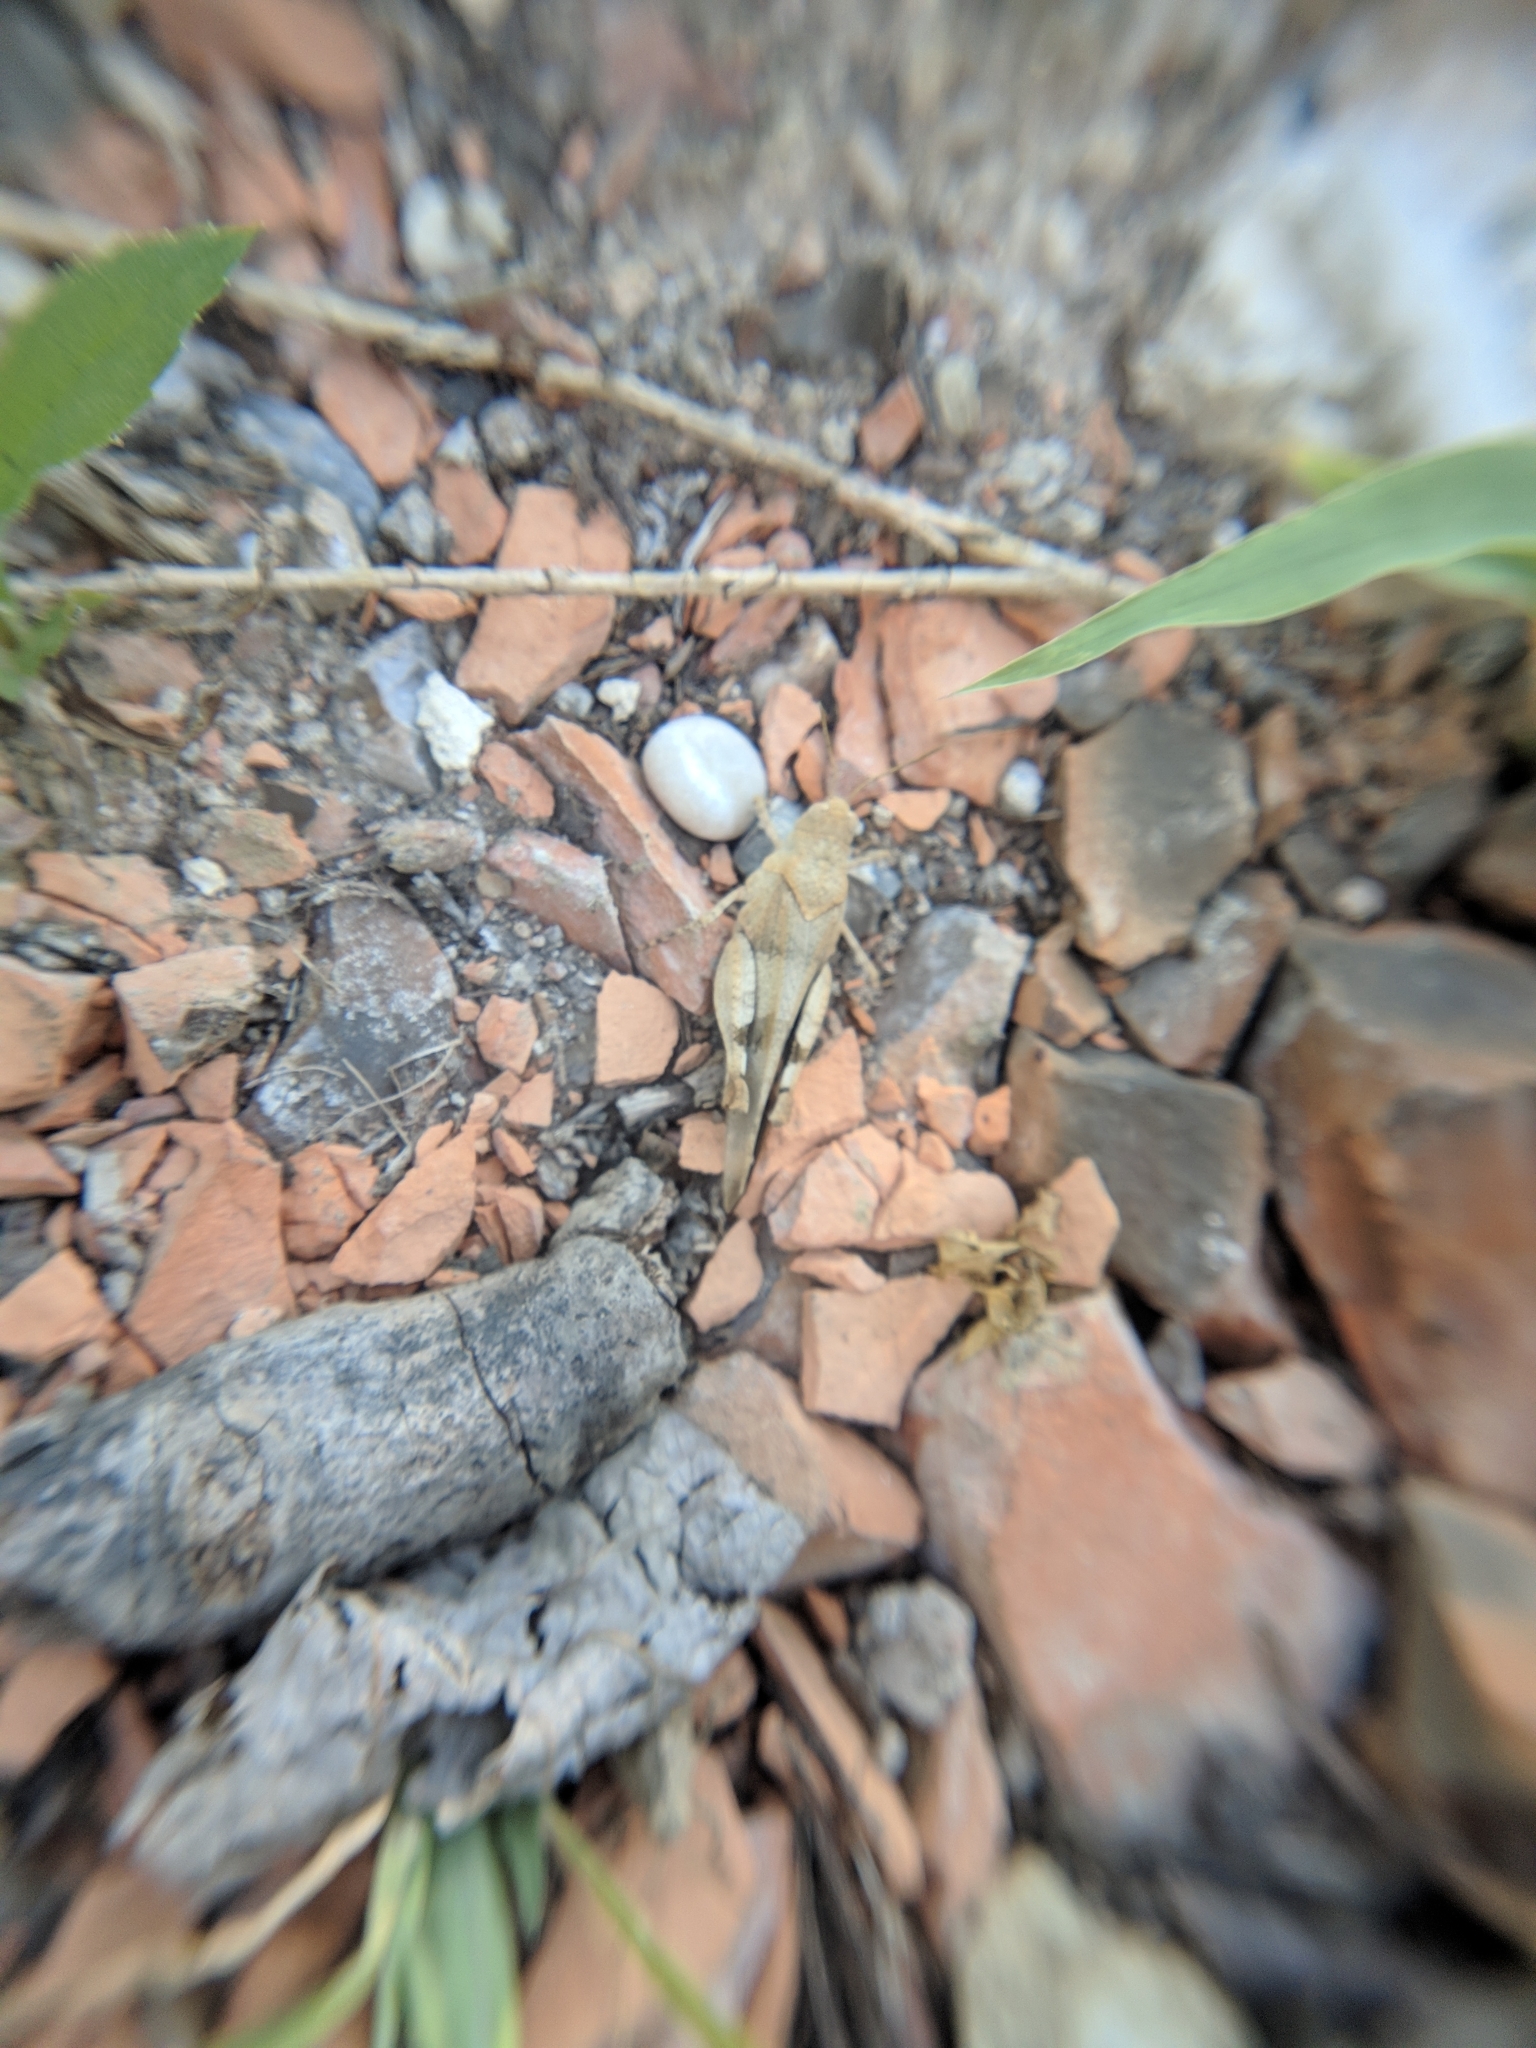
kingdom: Animalia
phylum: Arthropoda
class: Insecta
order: Orthoptera
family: Acrididae
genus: Oedipoda
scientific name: Oedipoda caerulescens
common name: Blue-winged grasshopper
